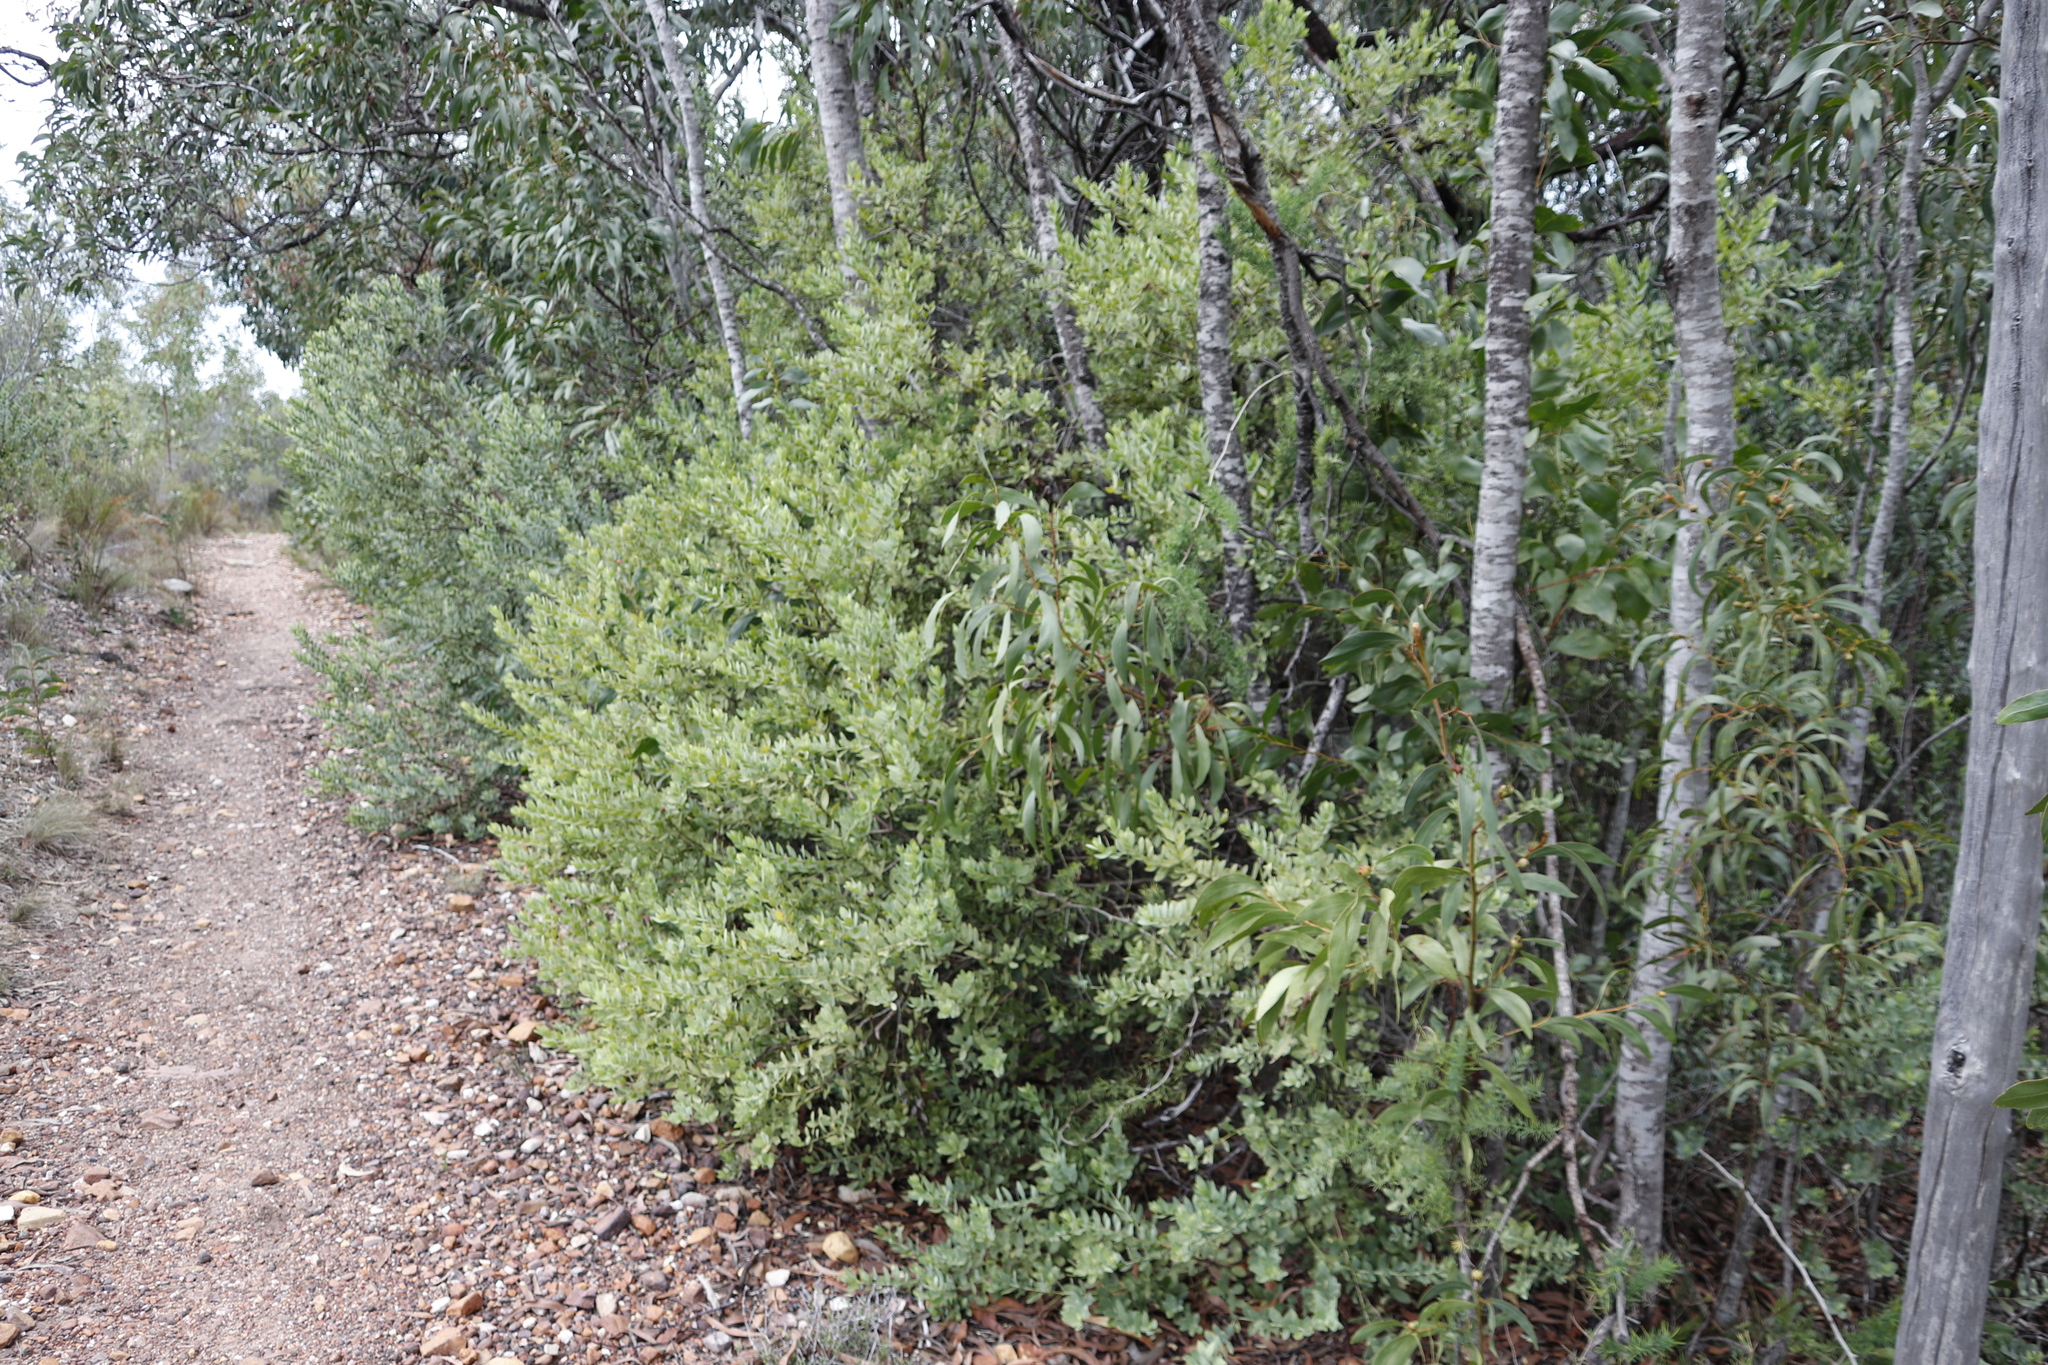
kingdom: Plantae
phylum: Tracheophyta
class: Magnoliopsida
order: Santalales
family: Santalaceae
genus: Osyris
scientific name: Osyris compressa
